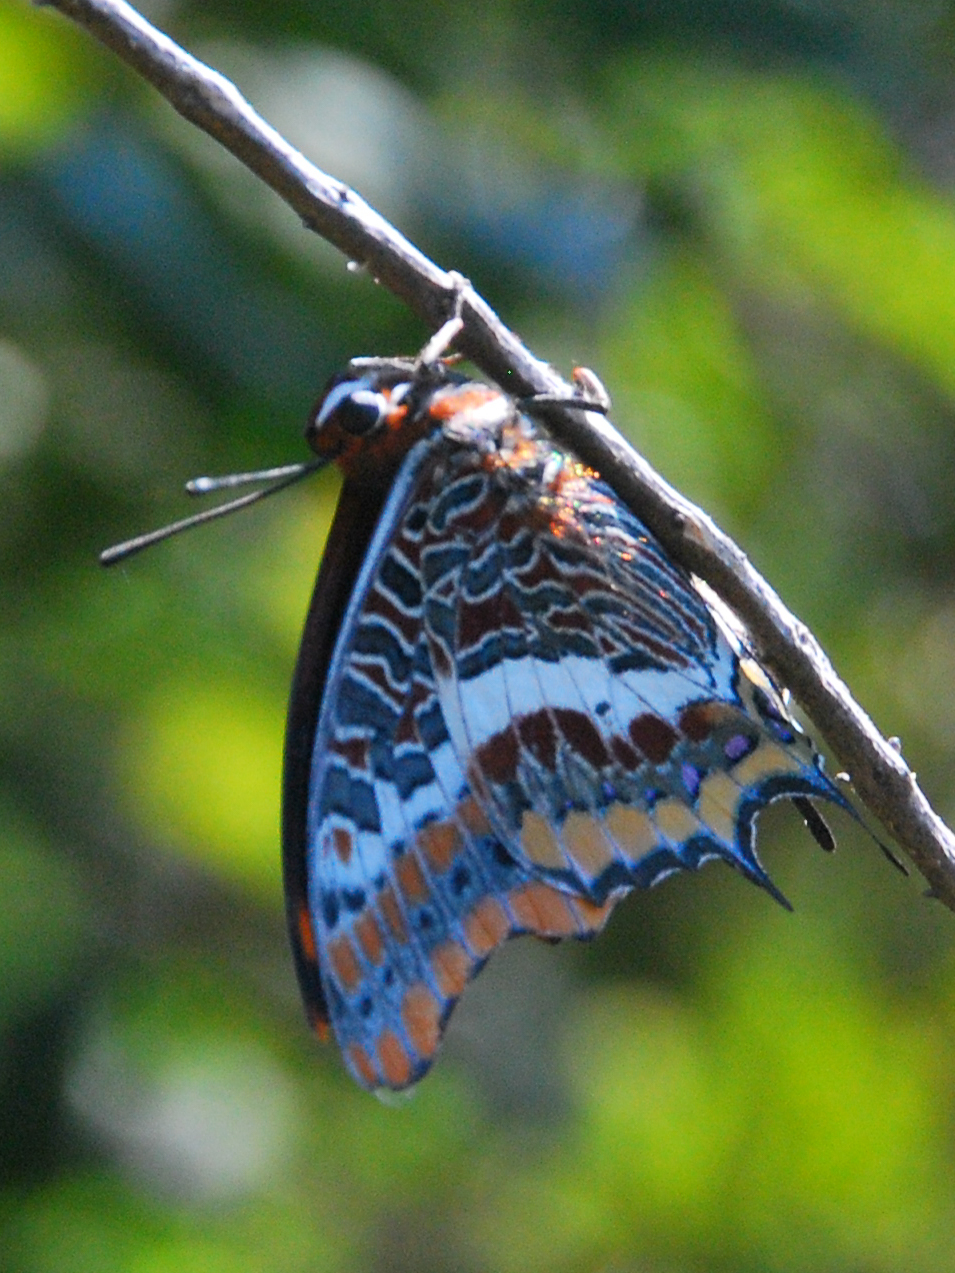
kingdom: Animalia
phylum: Arthropoda
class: Insecta
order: Lepidoptera
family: Nymphalidae
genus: Charaxes
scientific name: Charaxes jasius
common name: Two tailed pasha
